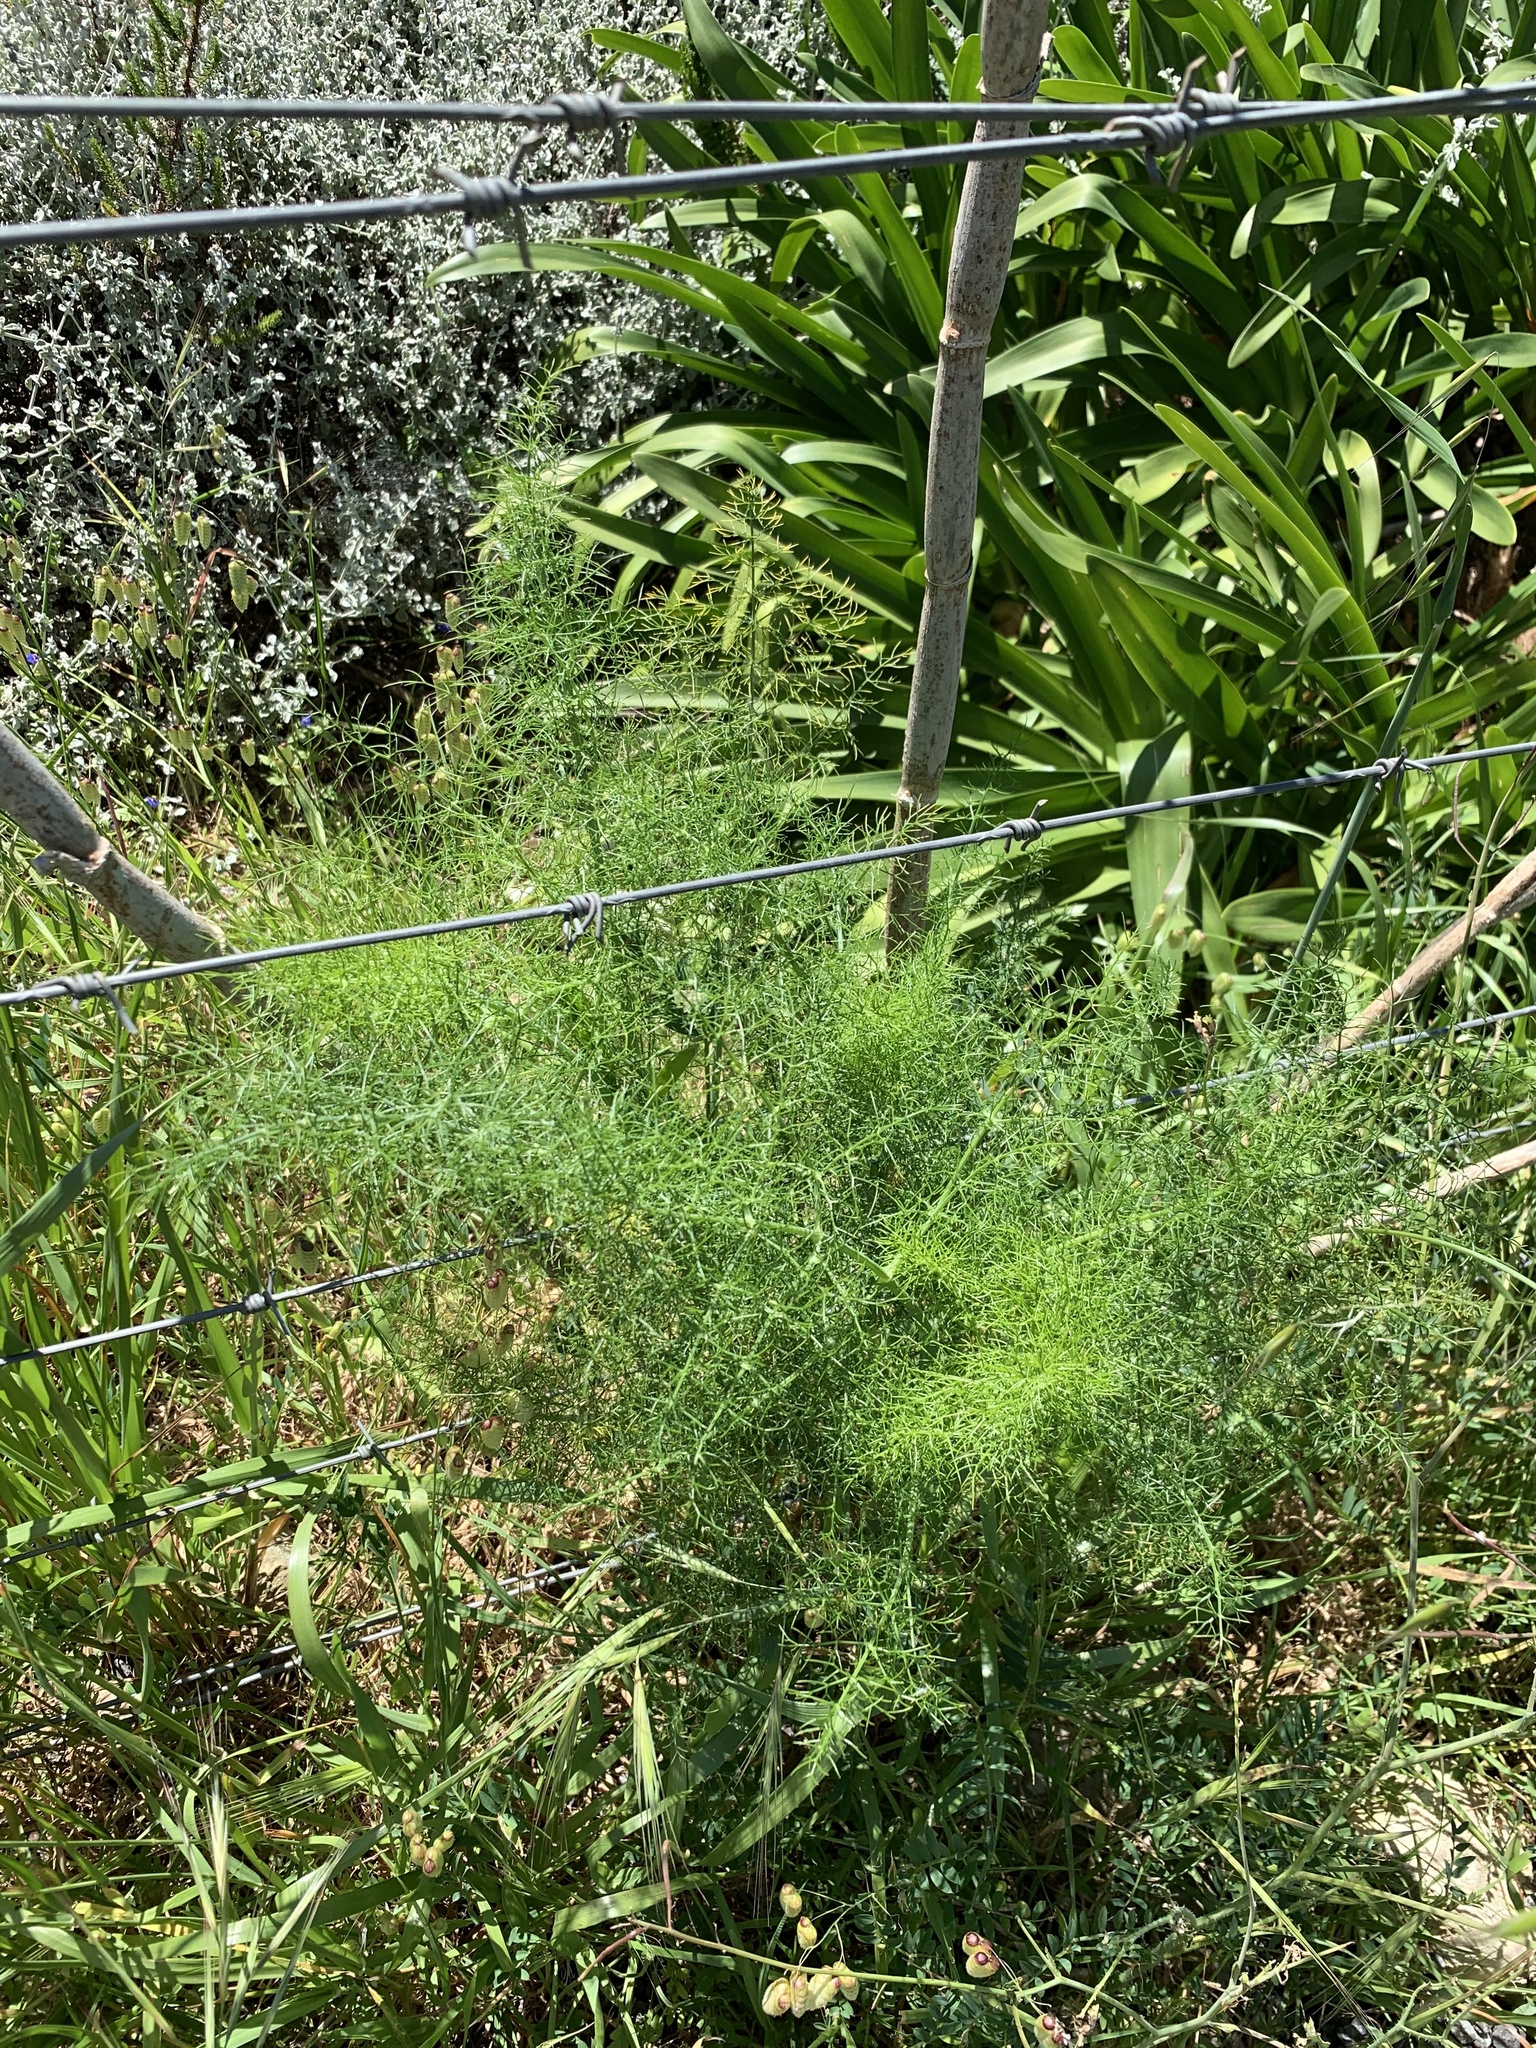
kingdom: Plantae
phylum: Tracheophyta
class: Magnoliopsida
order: Apiales
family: Apiaceae
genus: Foeniculum
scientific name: Foeniculum vulgare
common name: Fennel
